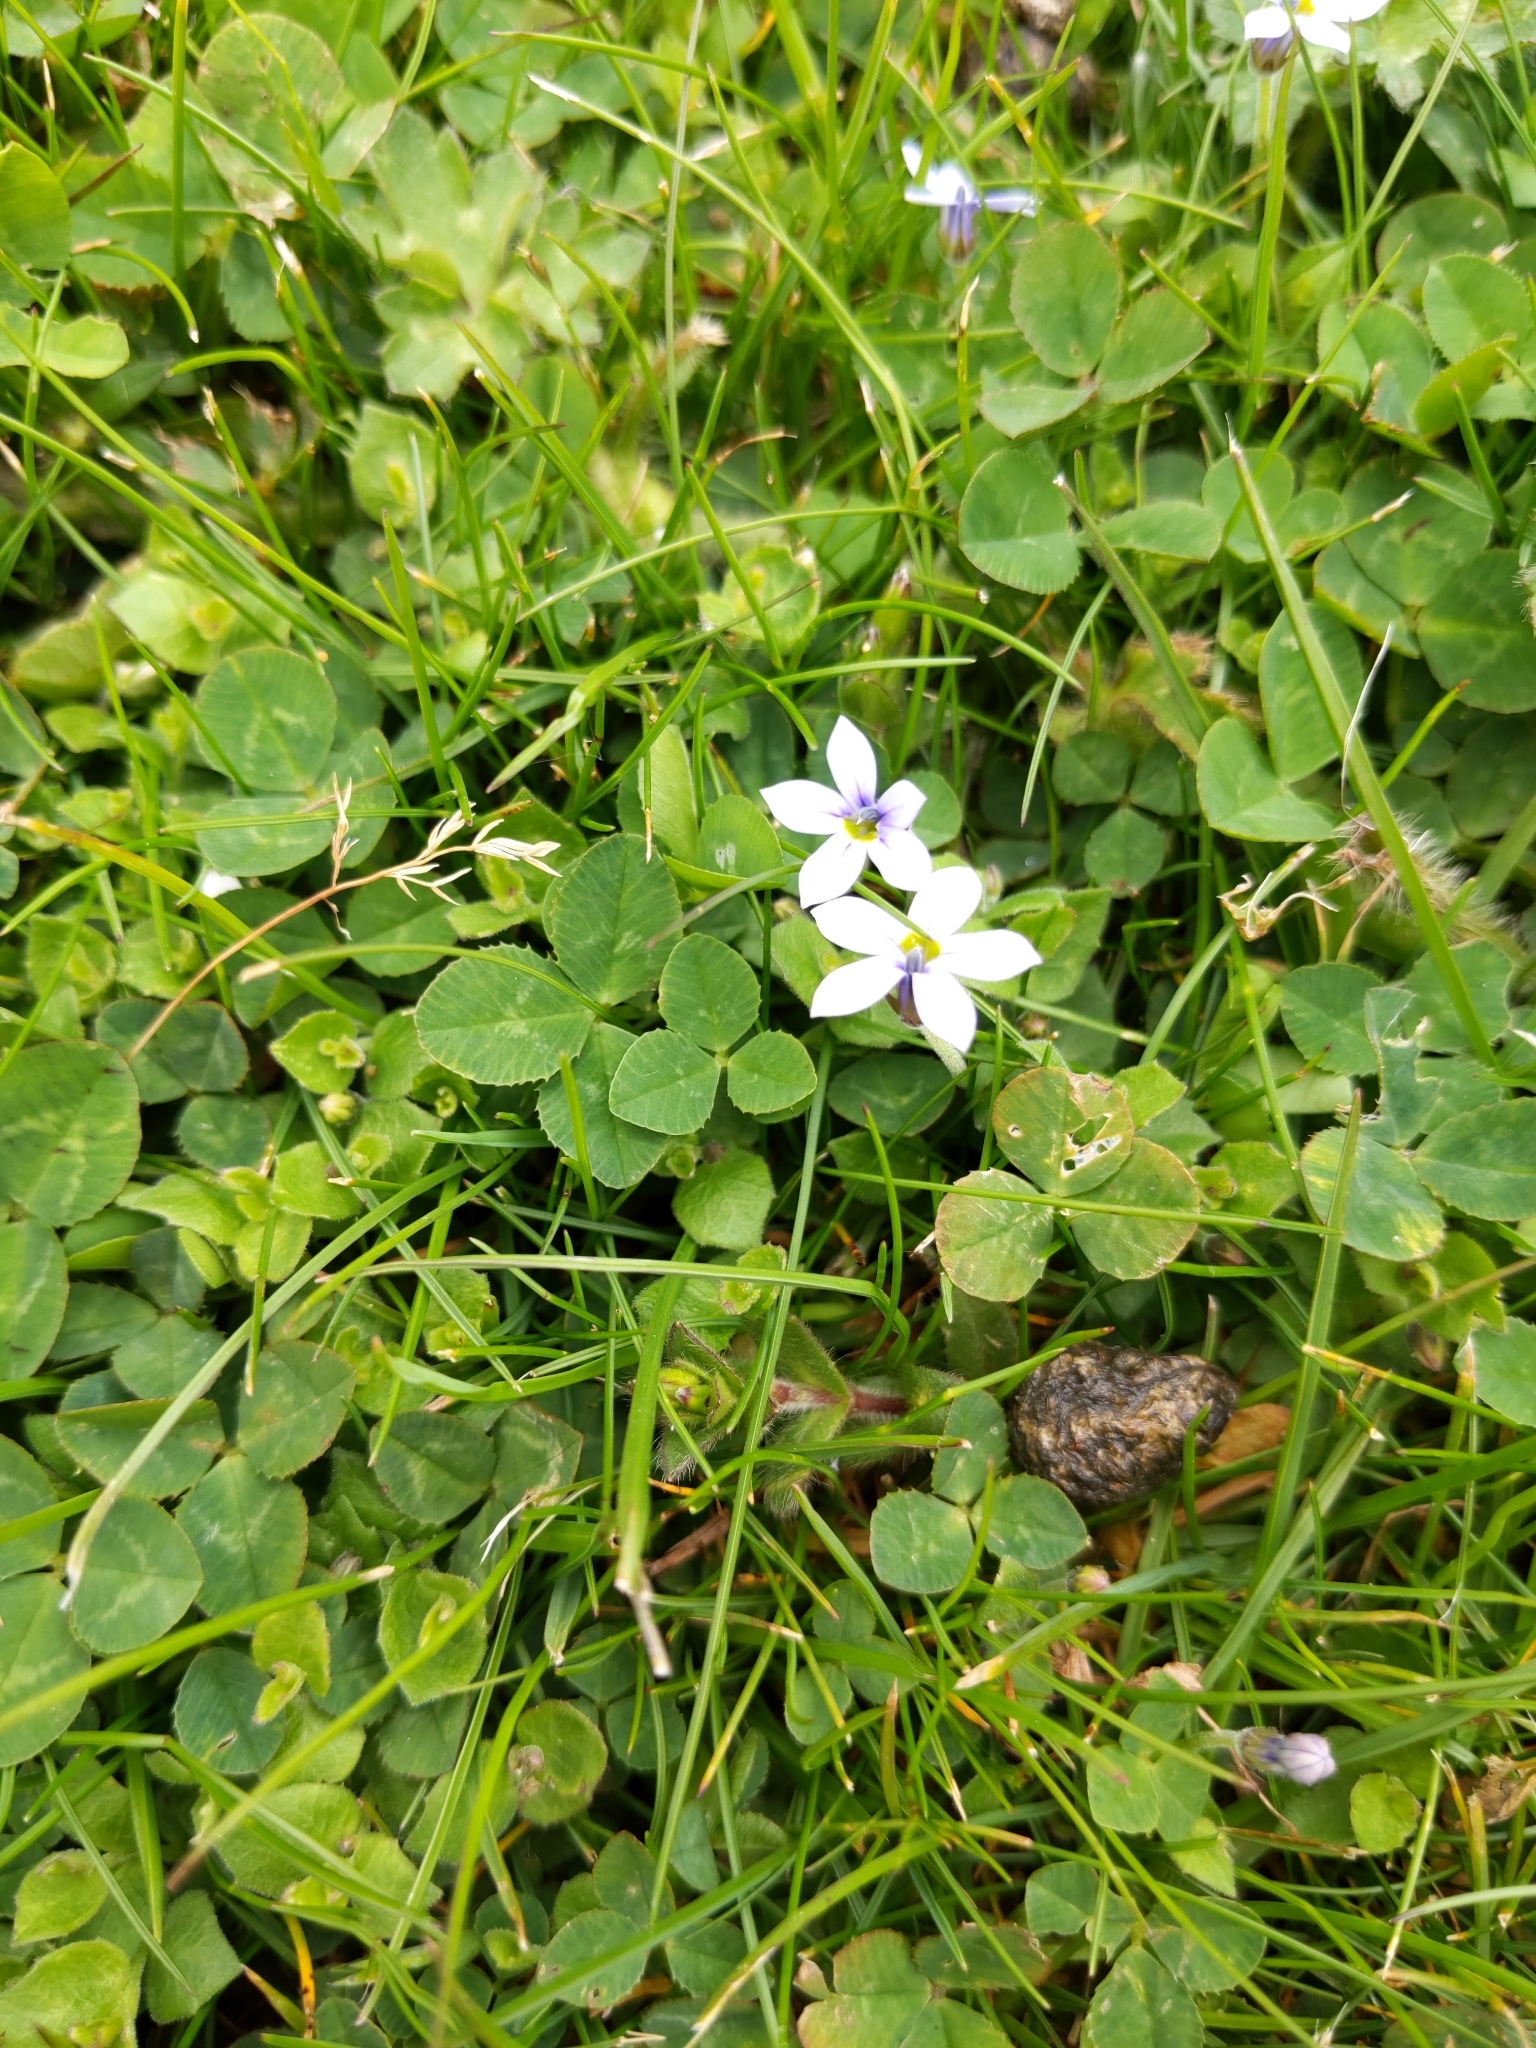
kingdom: Plantae
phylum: Tracheophyta
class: Magnoliopsida
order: Asterales
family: Campanulaceae
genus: Lobelia
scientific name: Lobelia pedunculata
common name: Matted pratia
